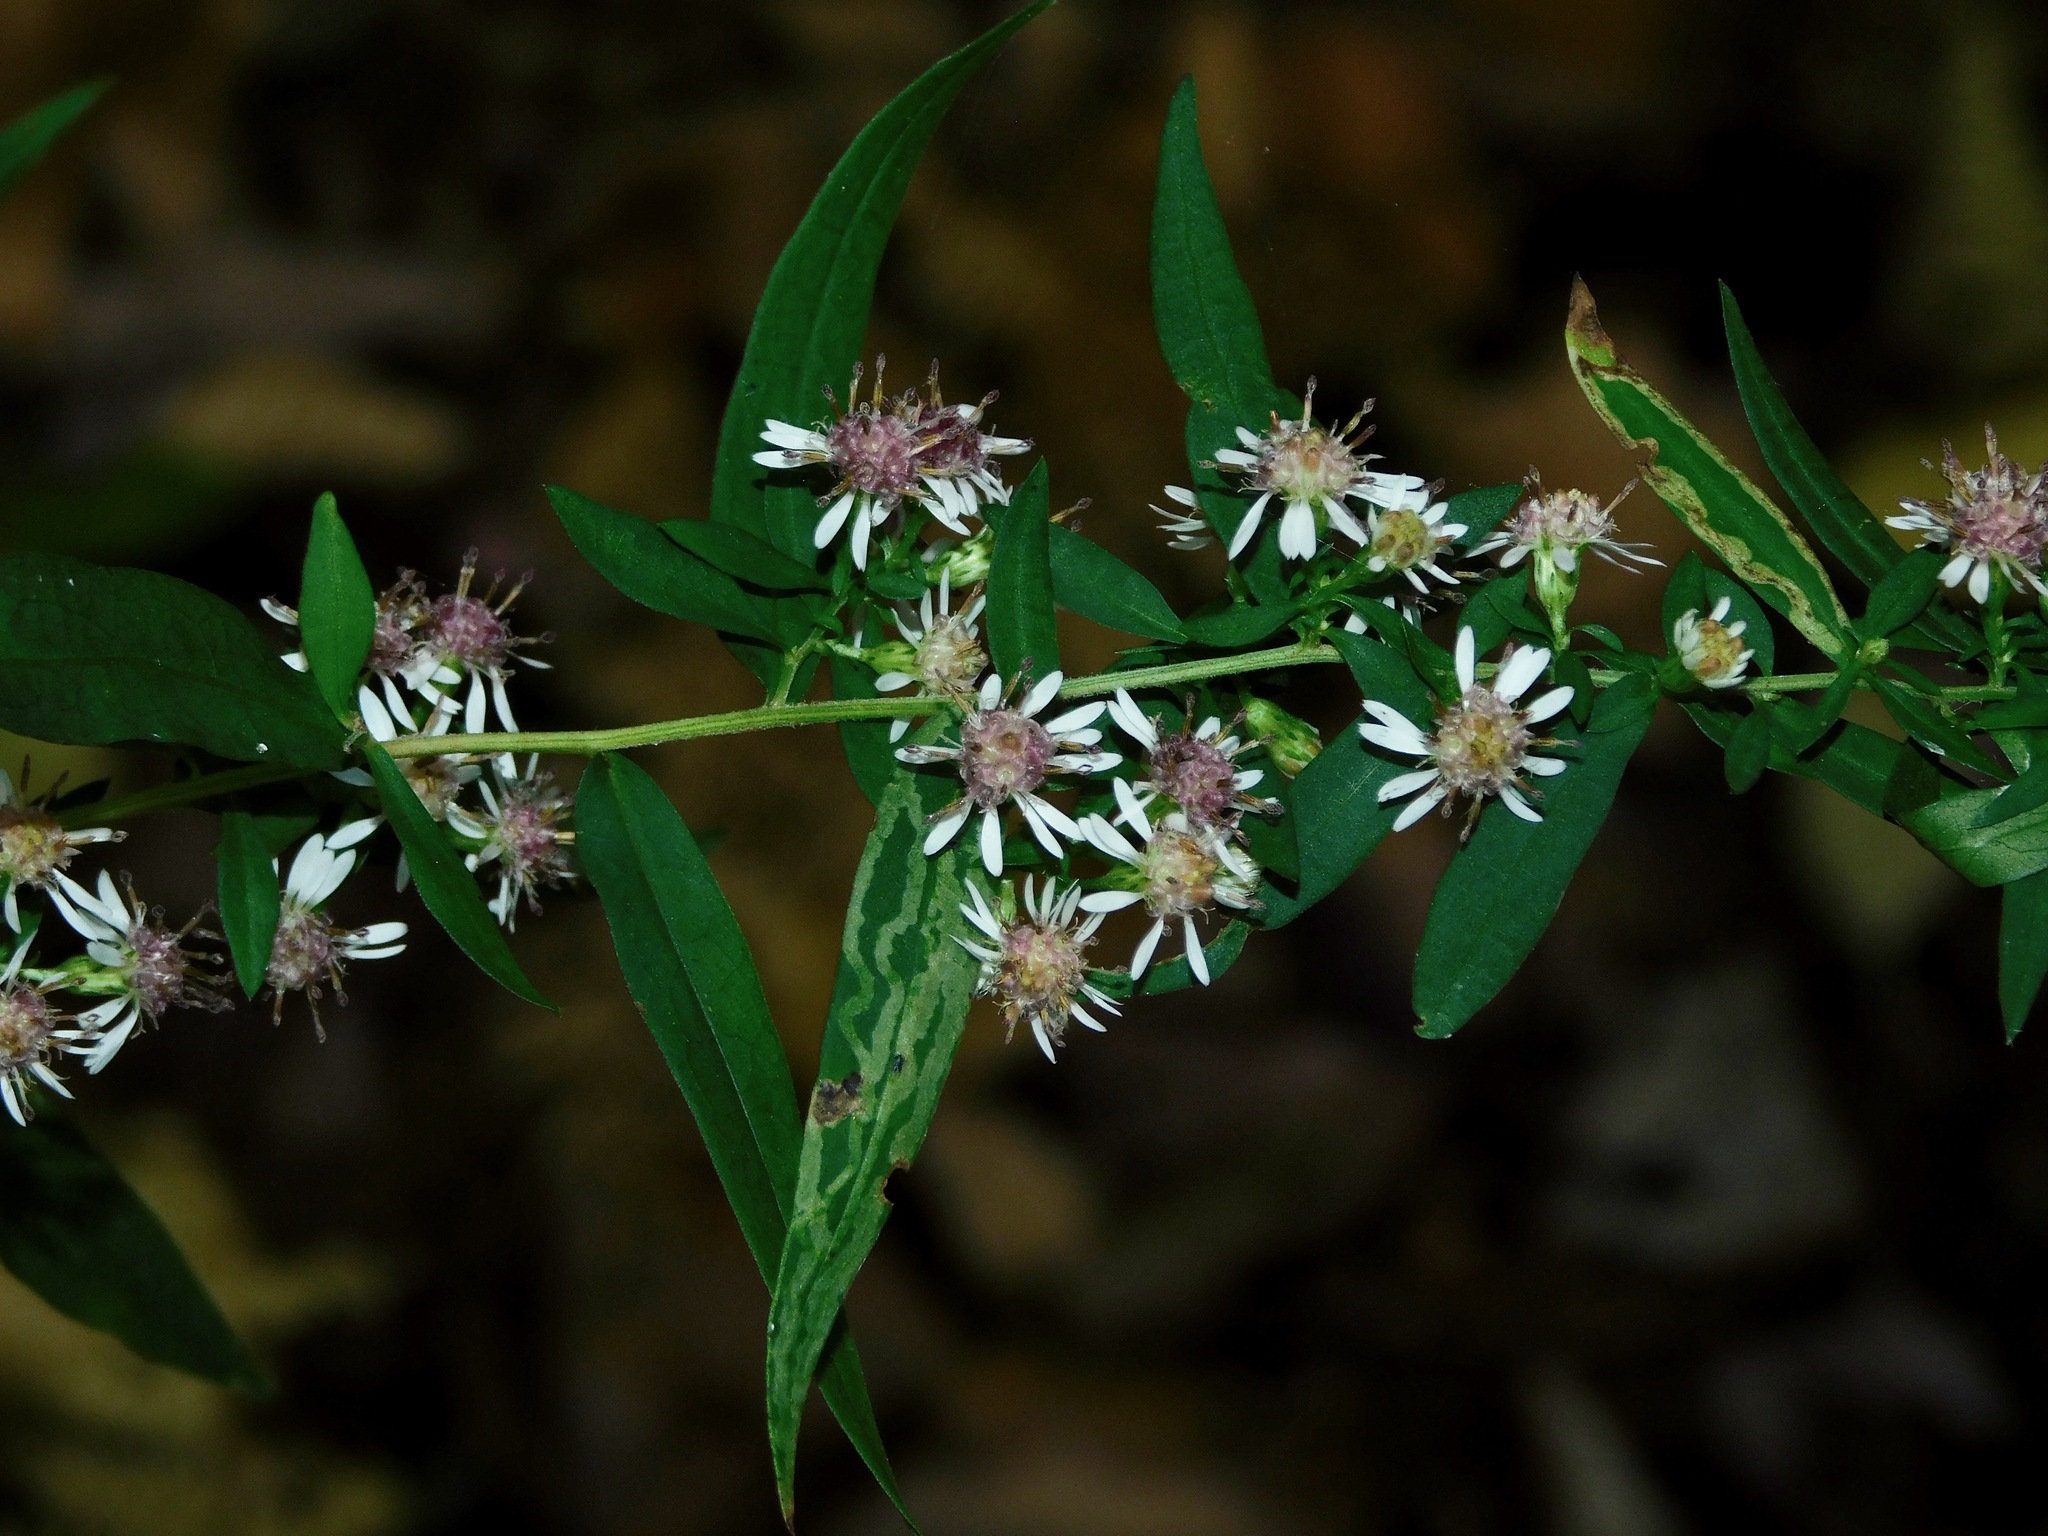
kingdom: Plantae
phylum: Tracheophyta
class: Magnoliopsida
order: Asterales
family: Asteraceae
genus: Symphyotrichum
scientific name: Symphyotrichum lateriflorum
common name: Calico aster
